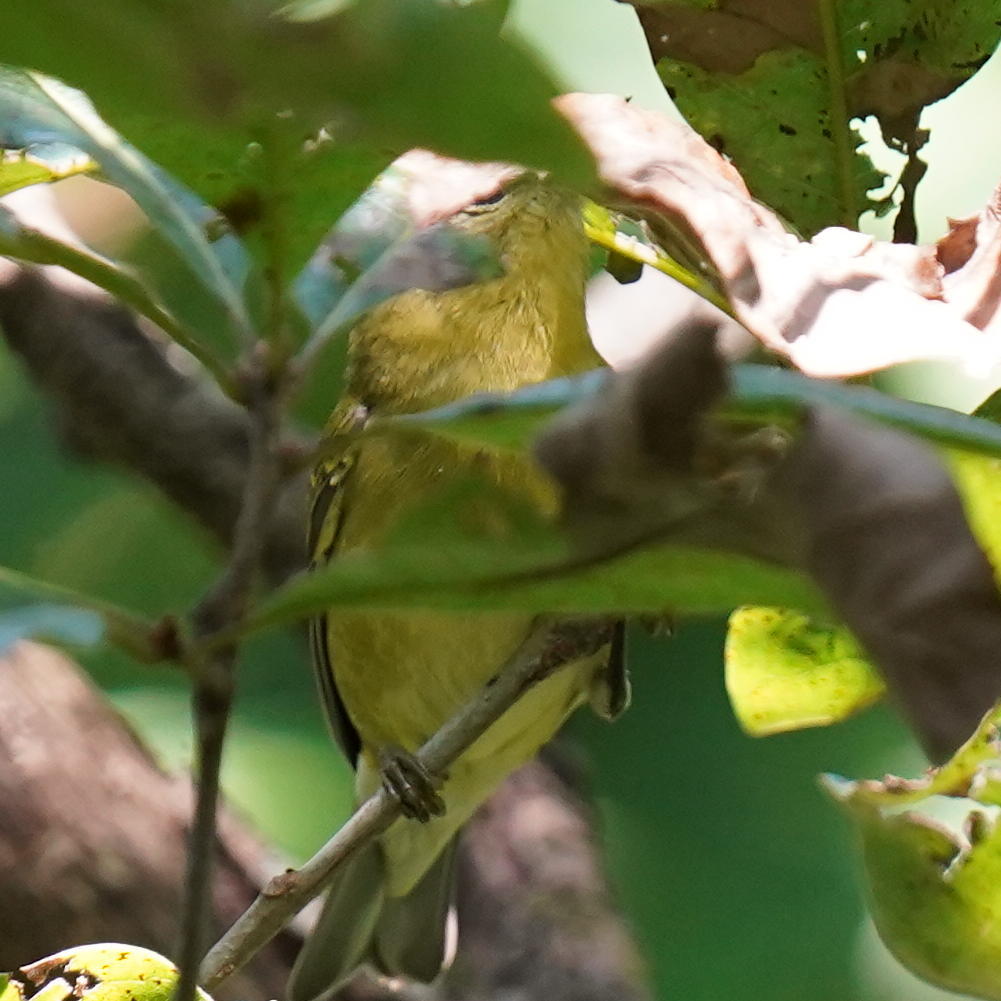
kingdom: Animalia
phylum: Chordata
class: Aves
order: Passeriformes
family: Parulidae
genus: Leiothlypis
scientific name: Leiothlypis peregrina
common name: Tennessee warbler
